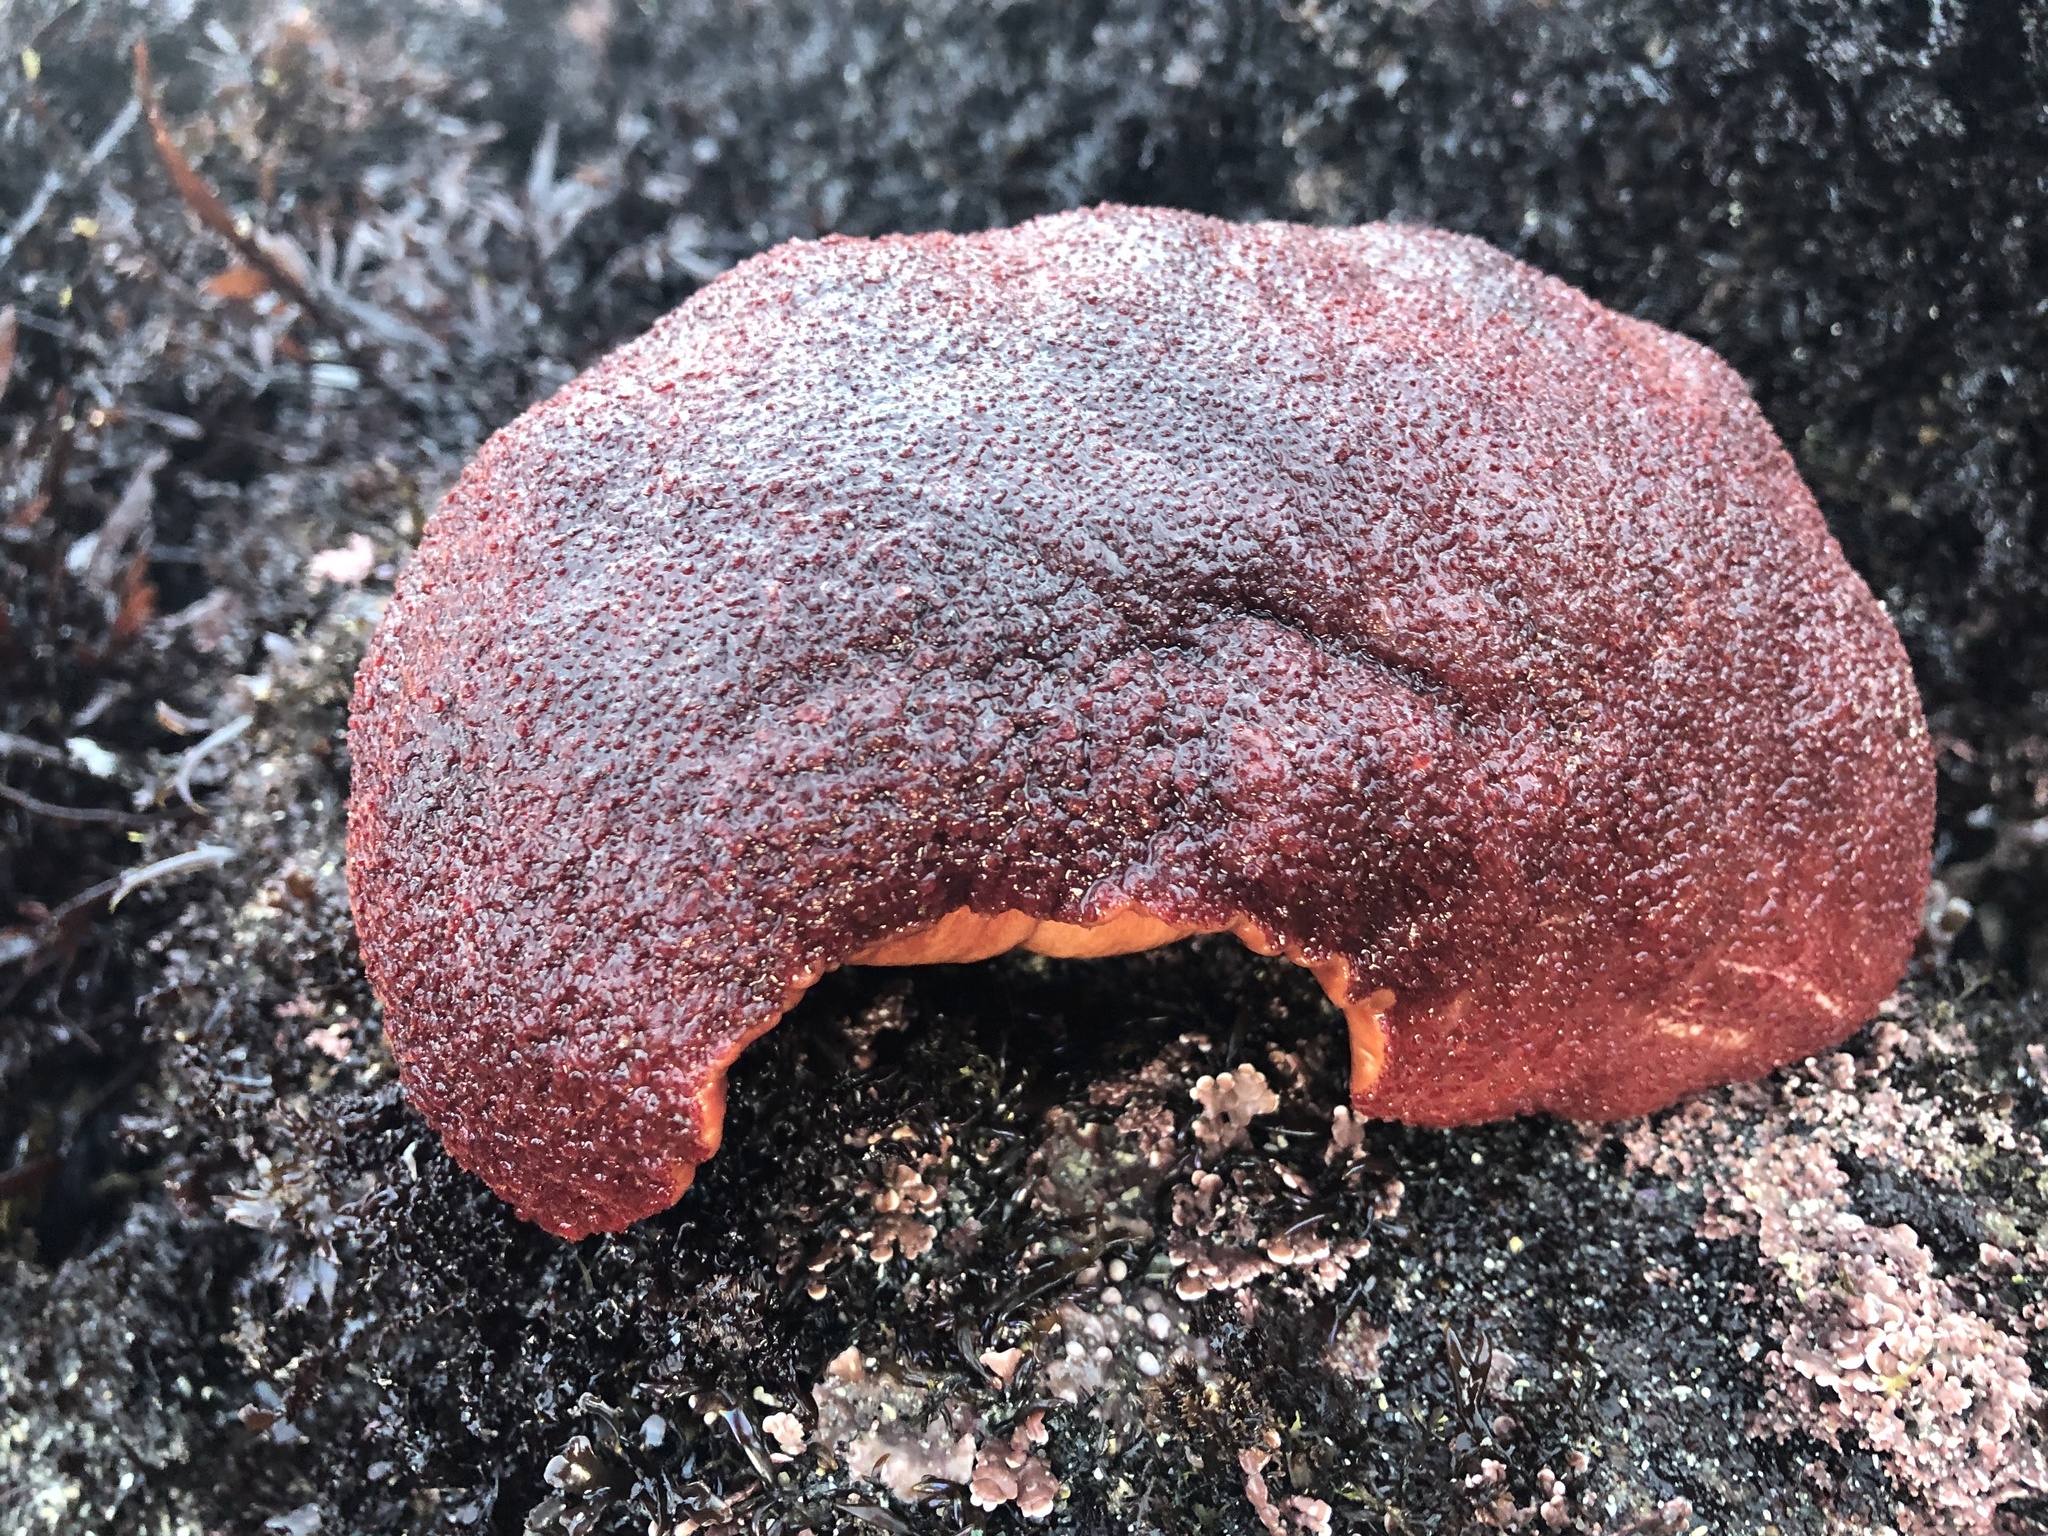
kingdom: Animalia
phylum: Mollusca
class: Polyplacophora
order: Chitonida
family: Acanthochitonidae
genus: Cryptochiton
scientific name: Cryptochiton stelleri
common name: Giant pacific chiton
